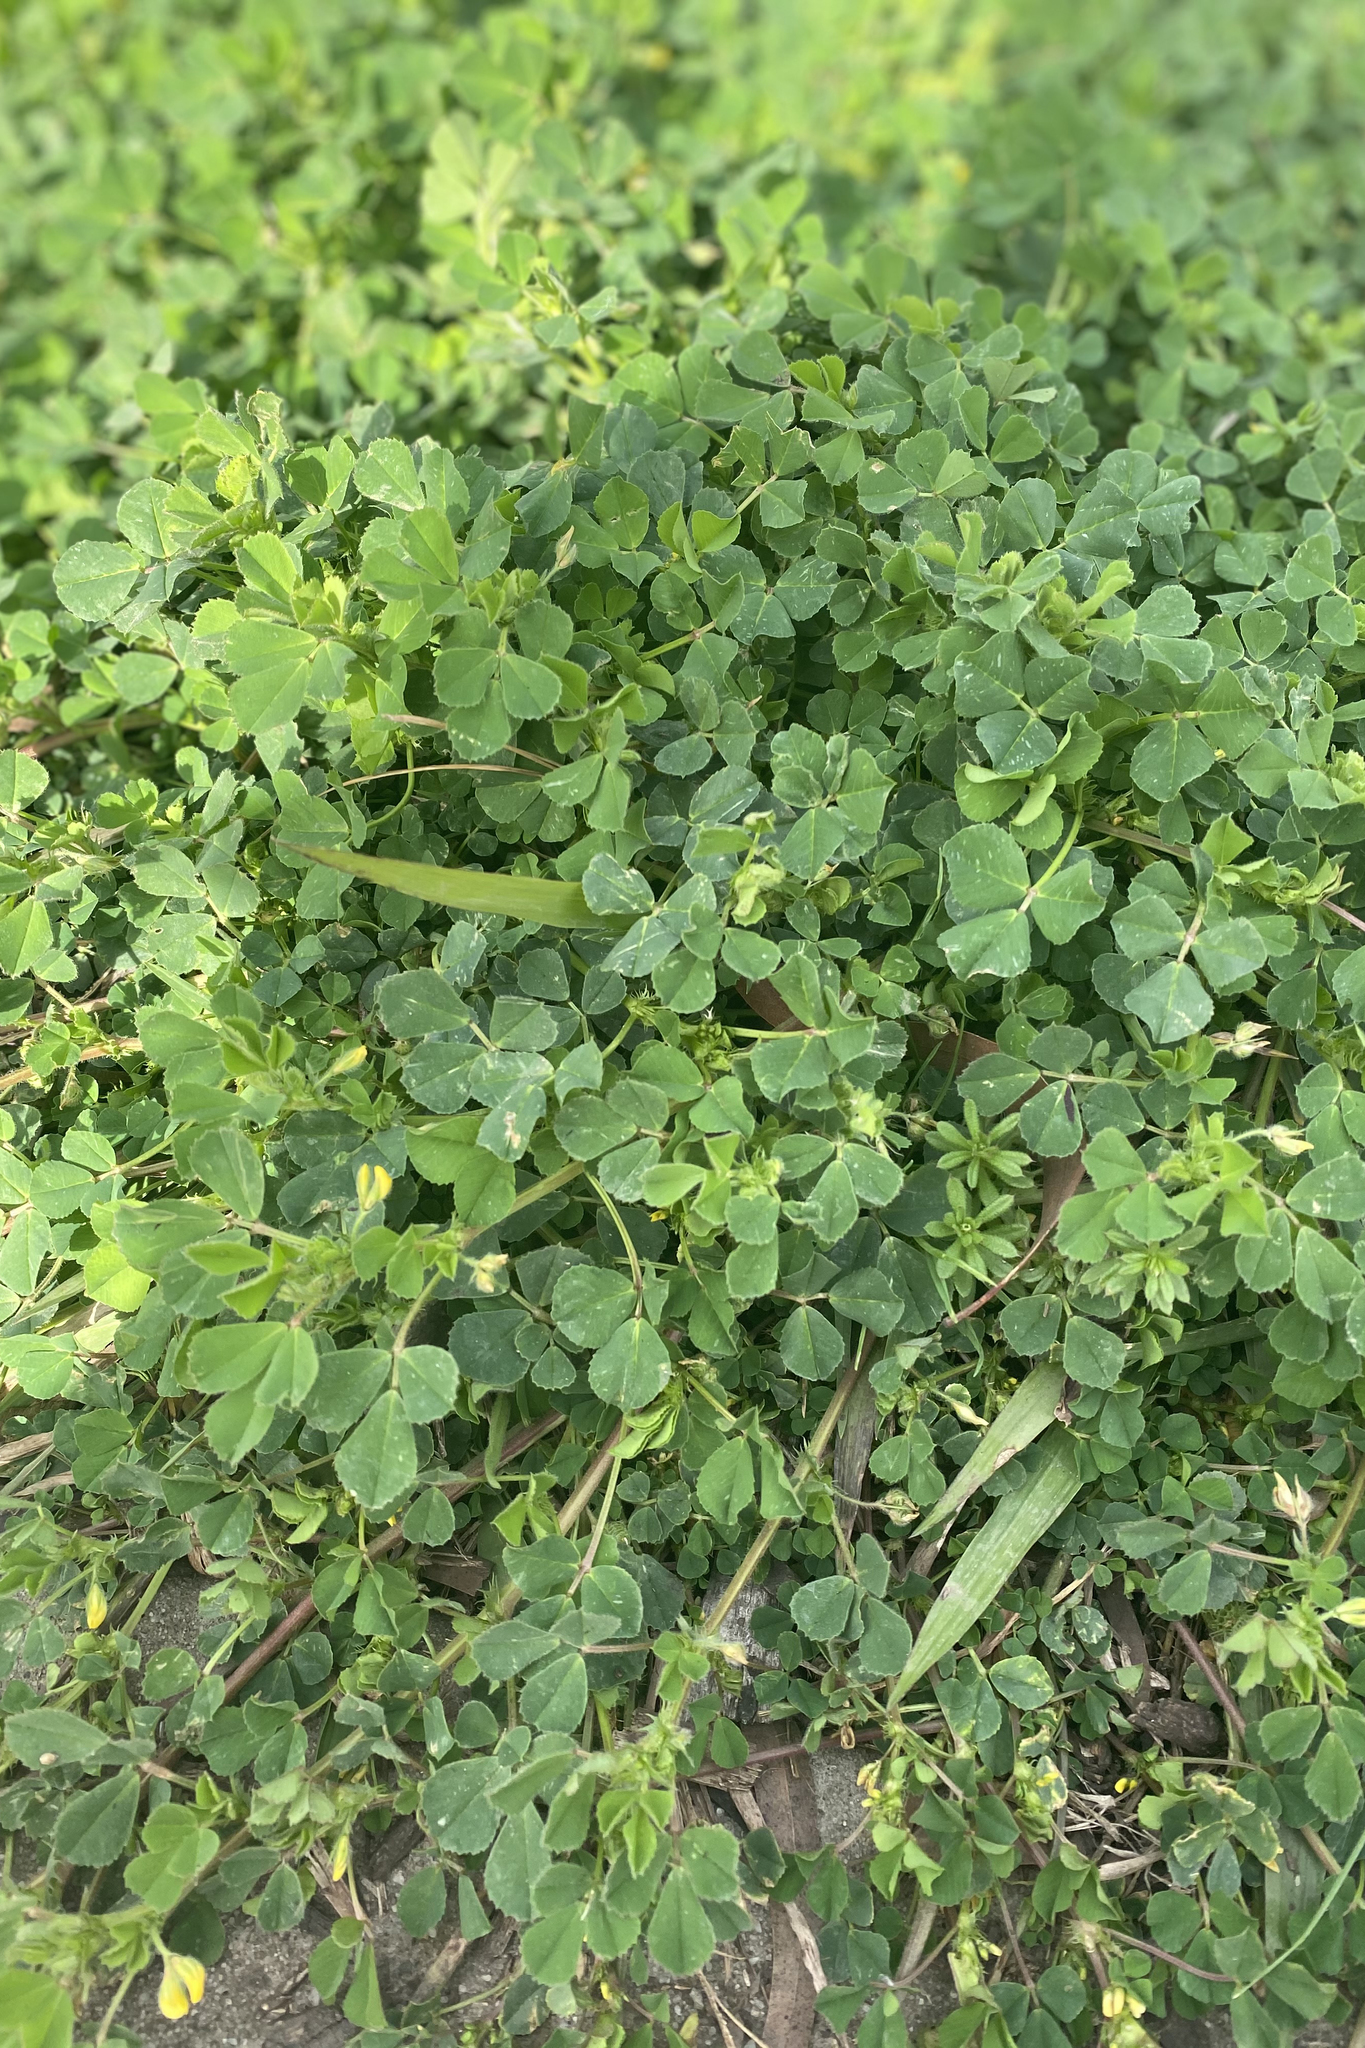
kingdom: Plantae
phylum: Tracheophyta
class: Magnoliopsida
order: Fabales
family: Fabaceae
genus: Medicago
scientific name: Medicago polymorpha
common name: Burclover
